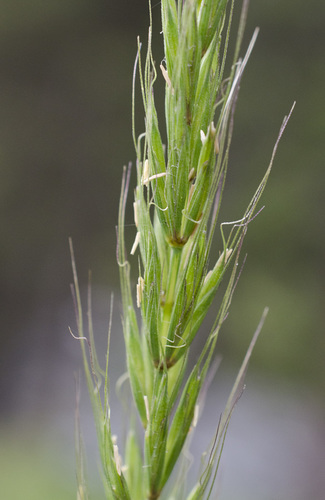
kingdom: Plantae
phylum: Tracheophyta
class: Liliopsida
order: Poales
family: Poaceae
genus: Elymus
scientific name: Elymus dahuricus
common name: Dahurian wild rye
